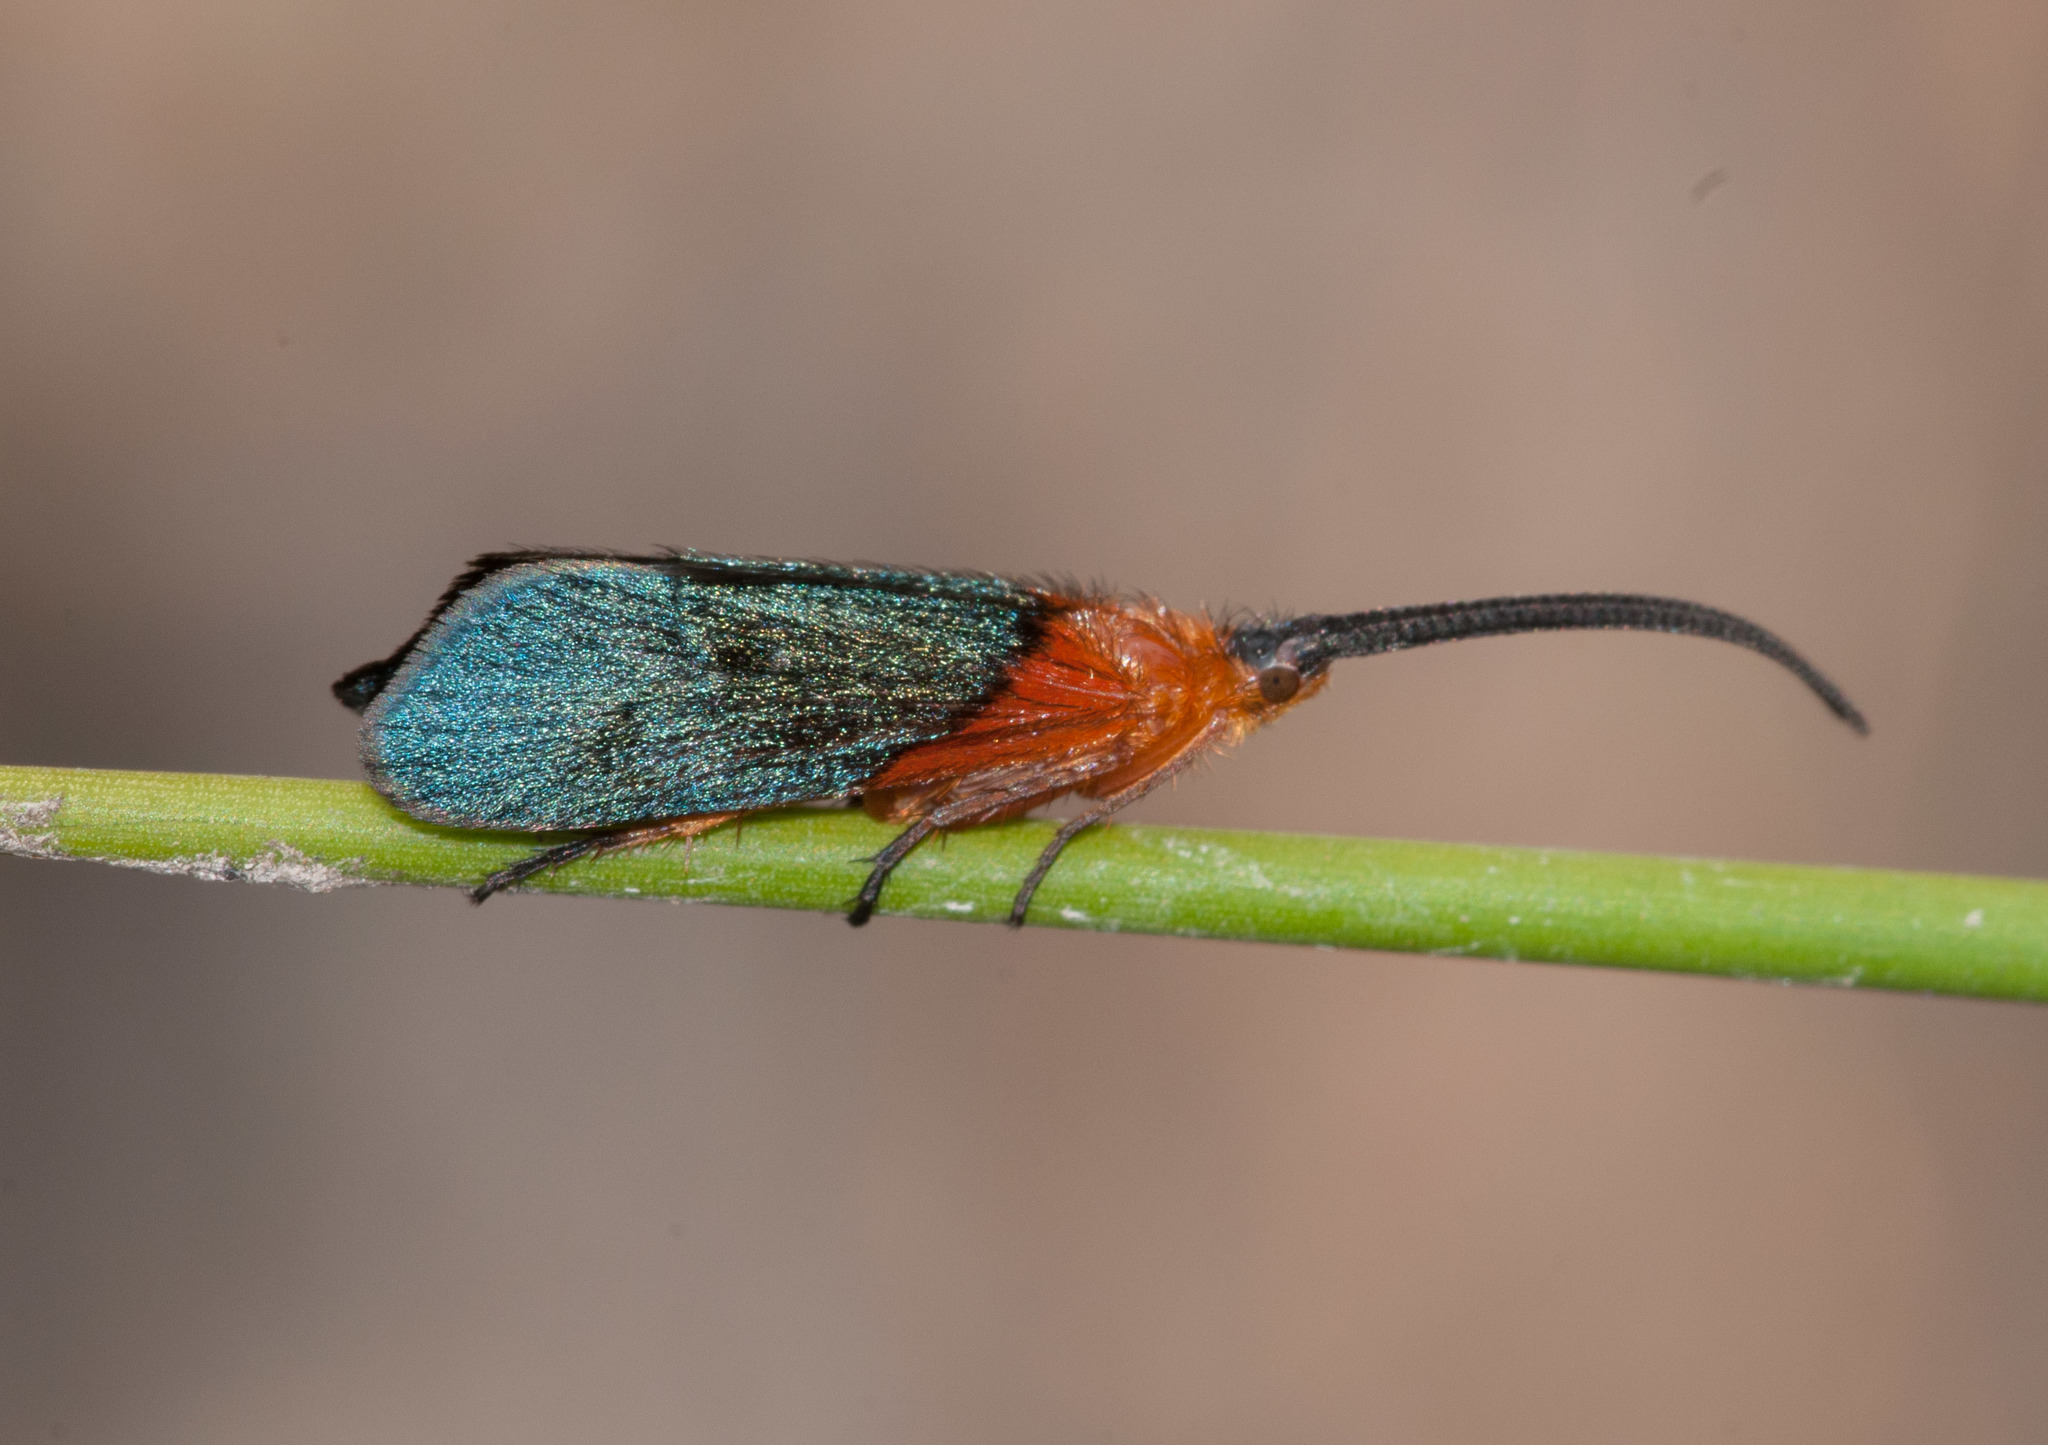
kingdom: Animalia
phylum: Arthropoda
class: Insecta
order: Trichoptera
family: Plectrotarsidae
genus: Plectrotarsus
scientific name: Plectrotarsus gravenhorsti
